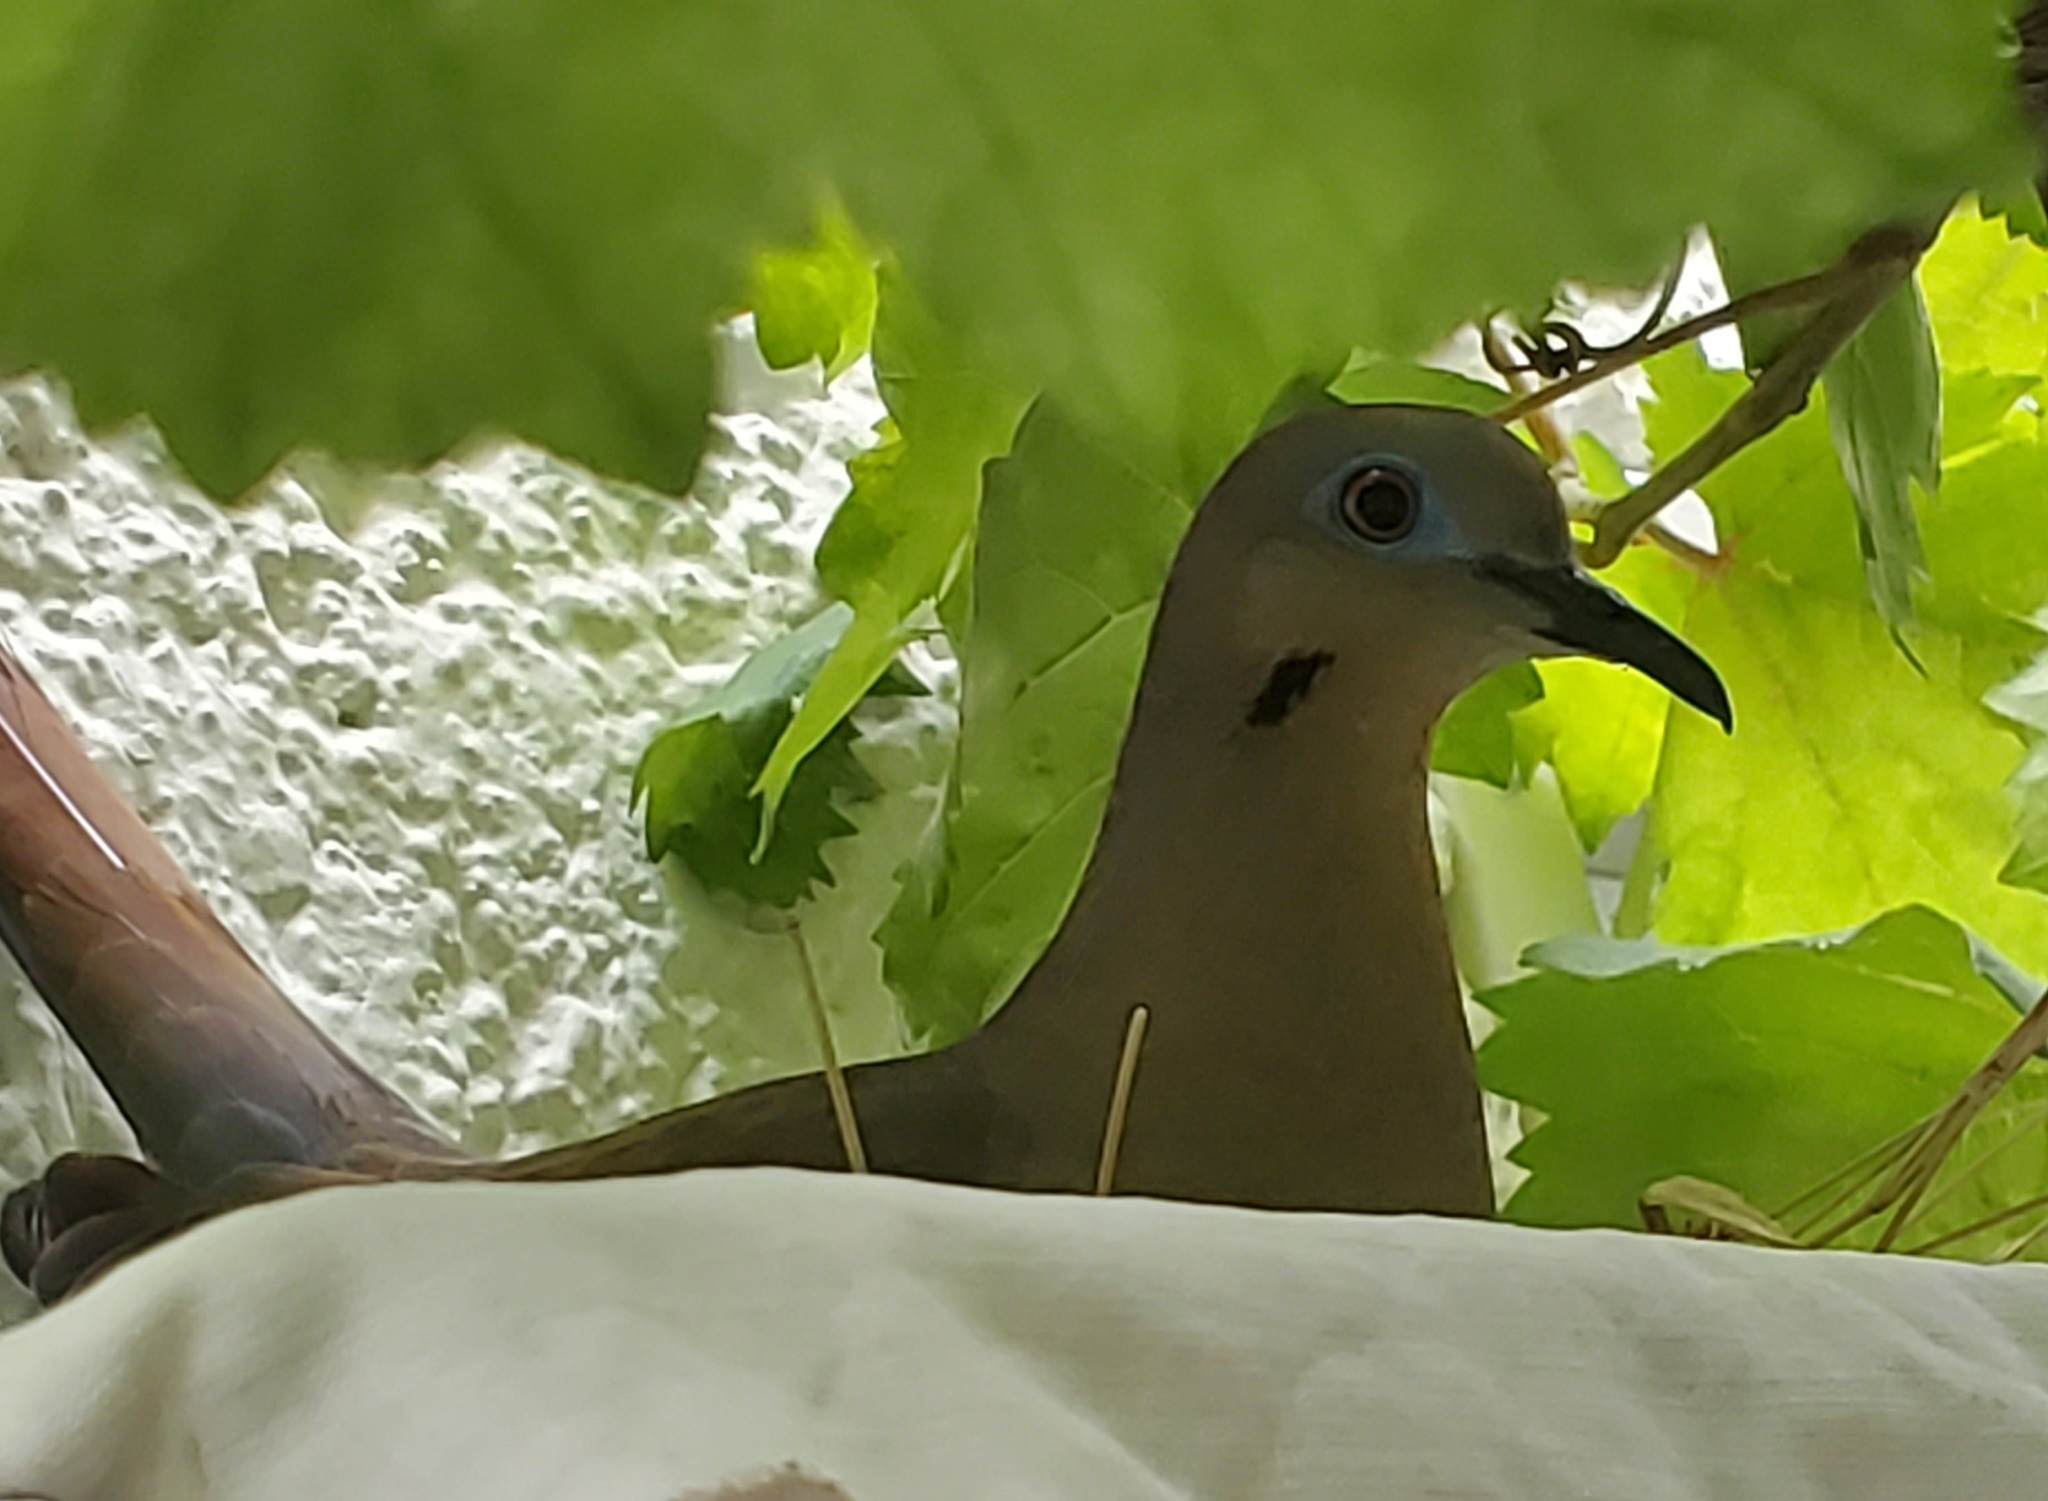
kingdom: Animalia
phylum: Chordata
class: Aves
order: Columbiformes
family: Columbidae
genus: Zenaida
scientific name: Zenaida asiatica
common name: White-winged dove
